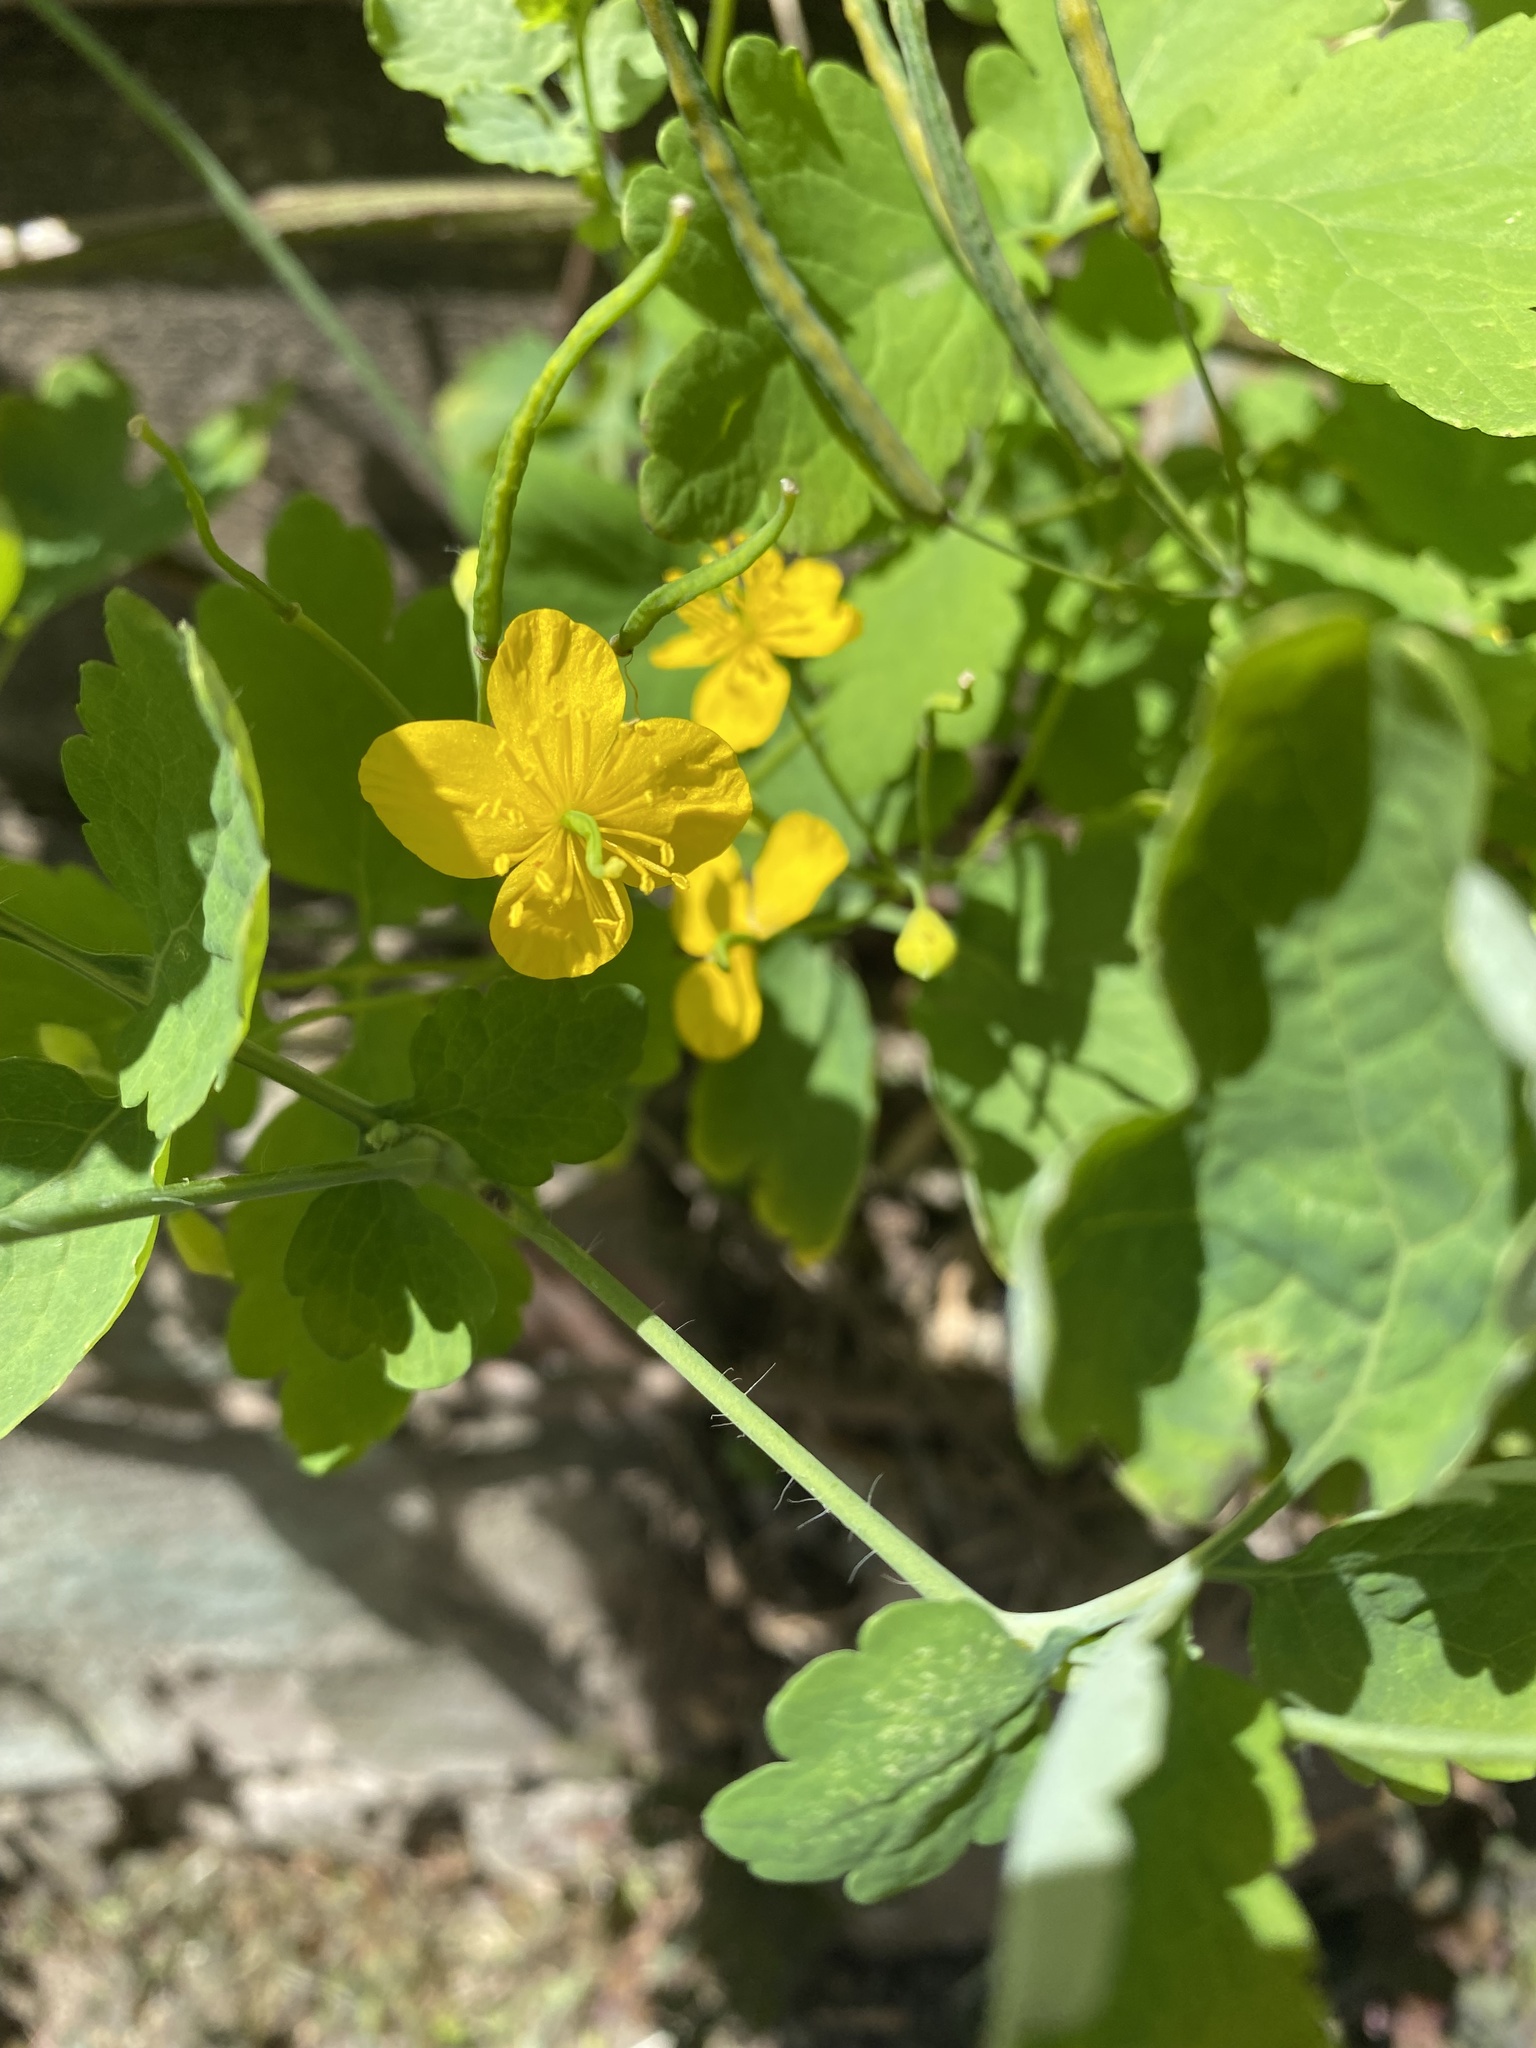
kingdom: Plantae
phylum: Tracheophyta
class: Magnoliopsida
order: Ranunculales
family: Papaveraceae
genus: Chelidonium
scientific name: Chelidonium majus
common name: Greater celandine
